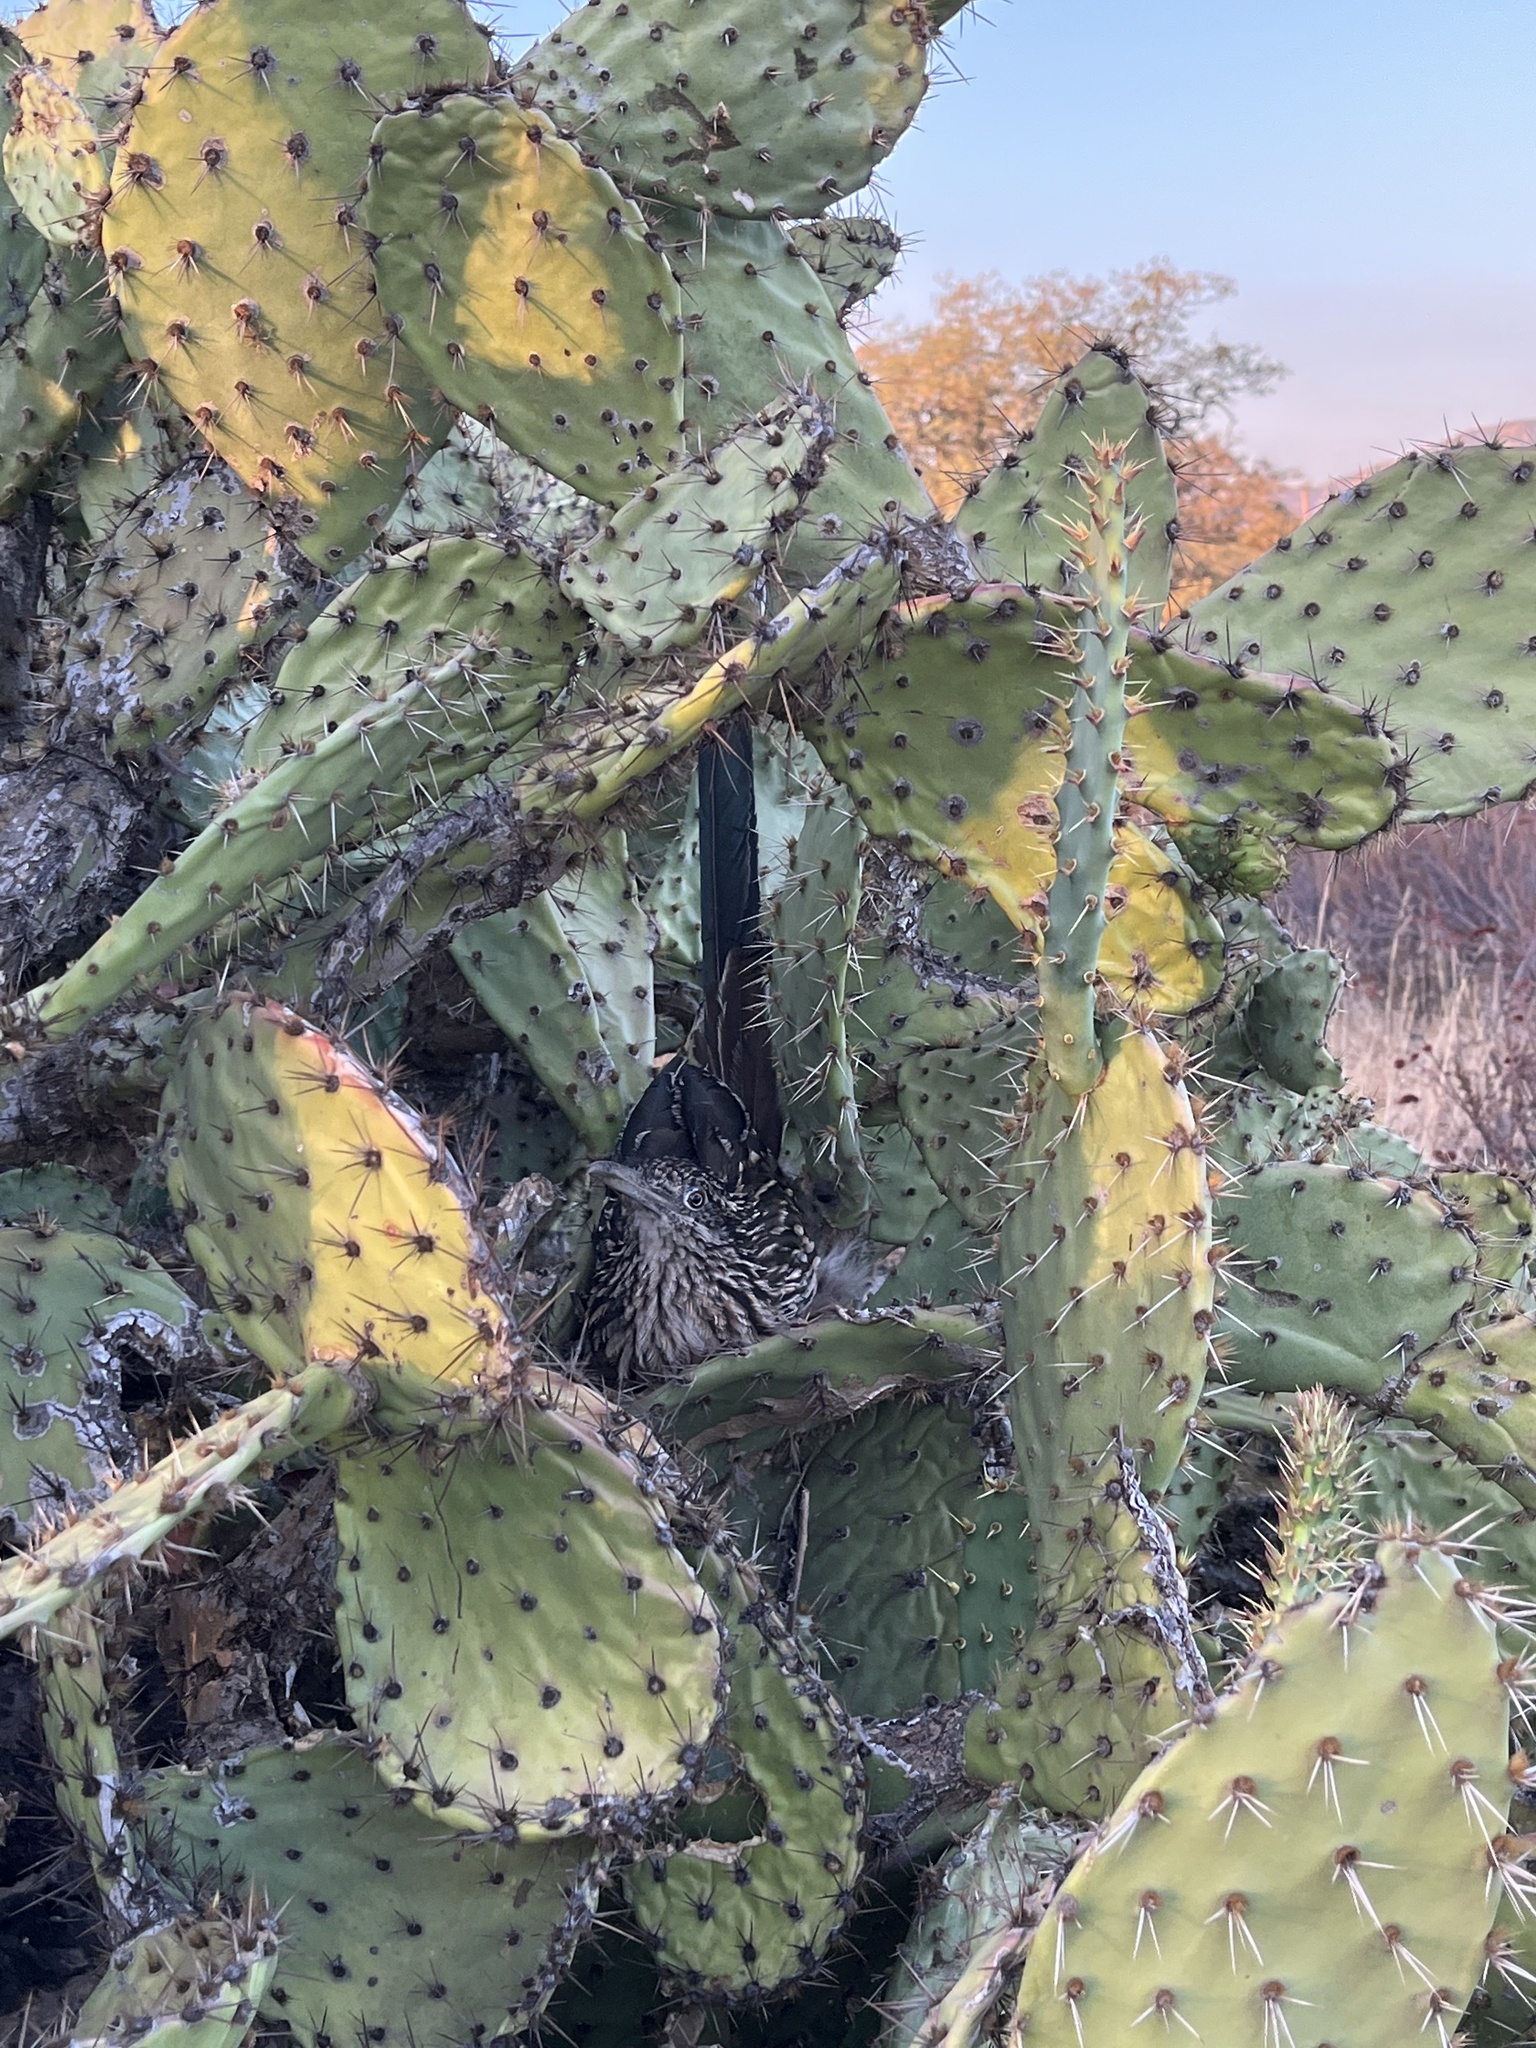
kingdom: Animalia
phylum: Chordata
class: Aves
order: Cuculiformes
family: Cuculidae
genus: Geococcyx
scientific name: Geococcyx californianus
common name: Greater roadrunner
